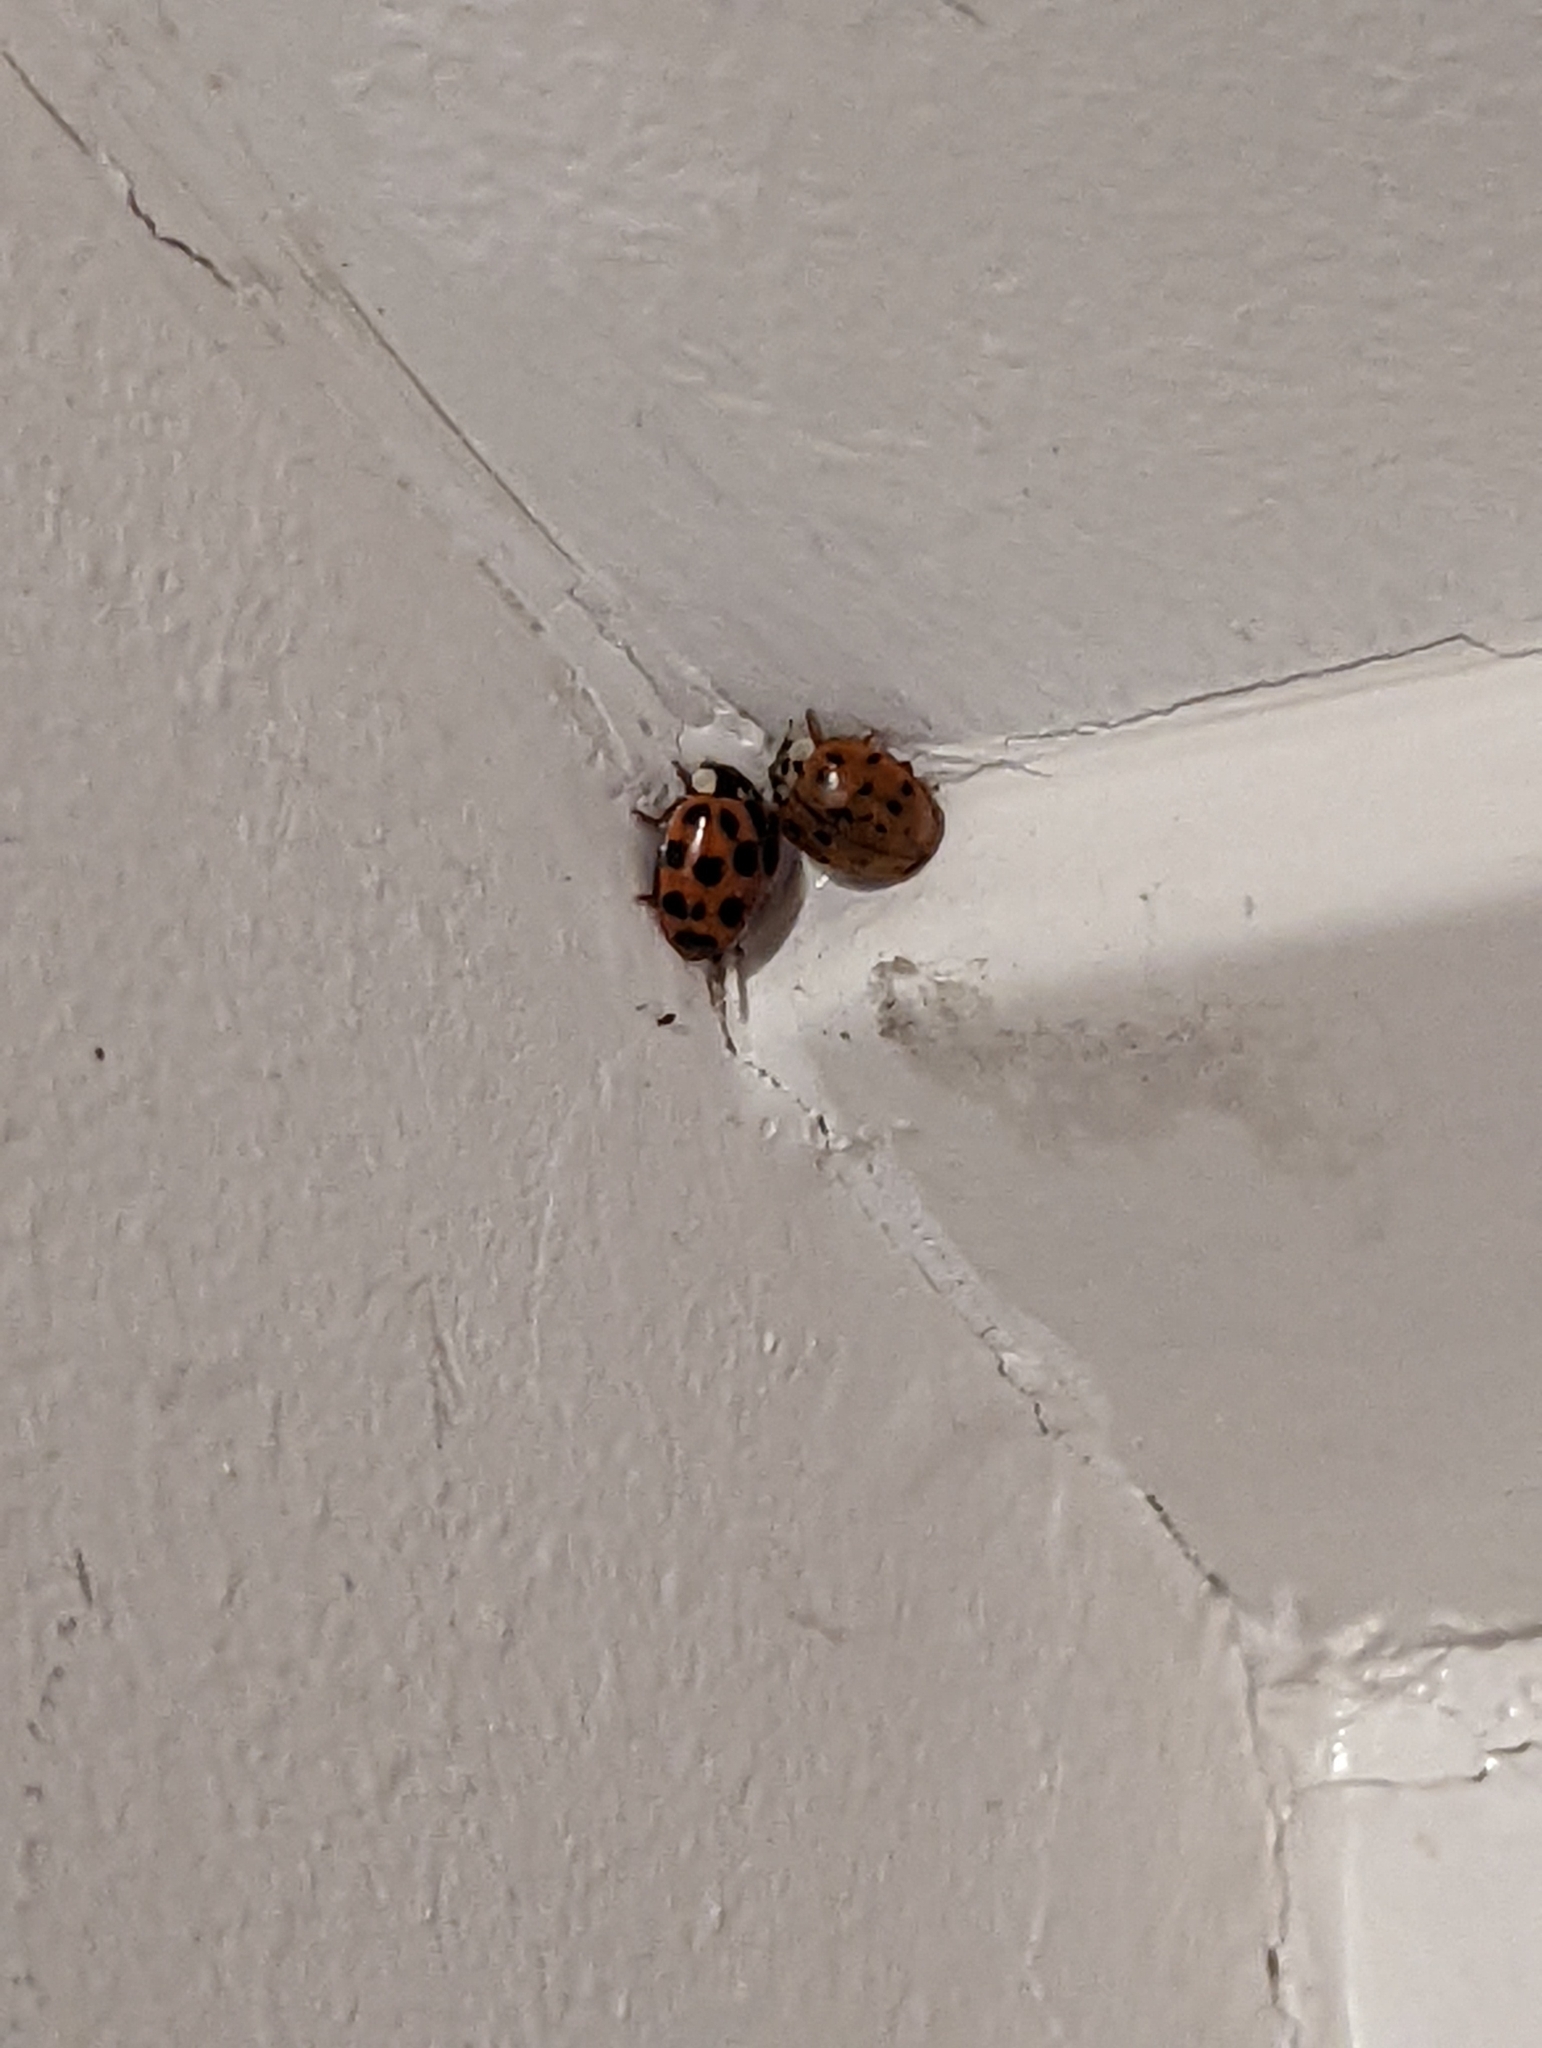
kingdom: Animalia
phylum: Arthropoda
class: Insecta
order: Coleoptera
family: Coccinellidae
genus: Harmonia
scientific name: Harmonia axyridis
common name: Harlequin ladybird
